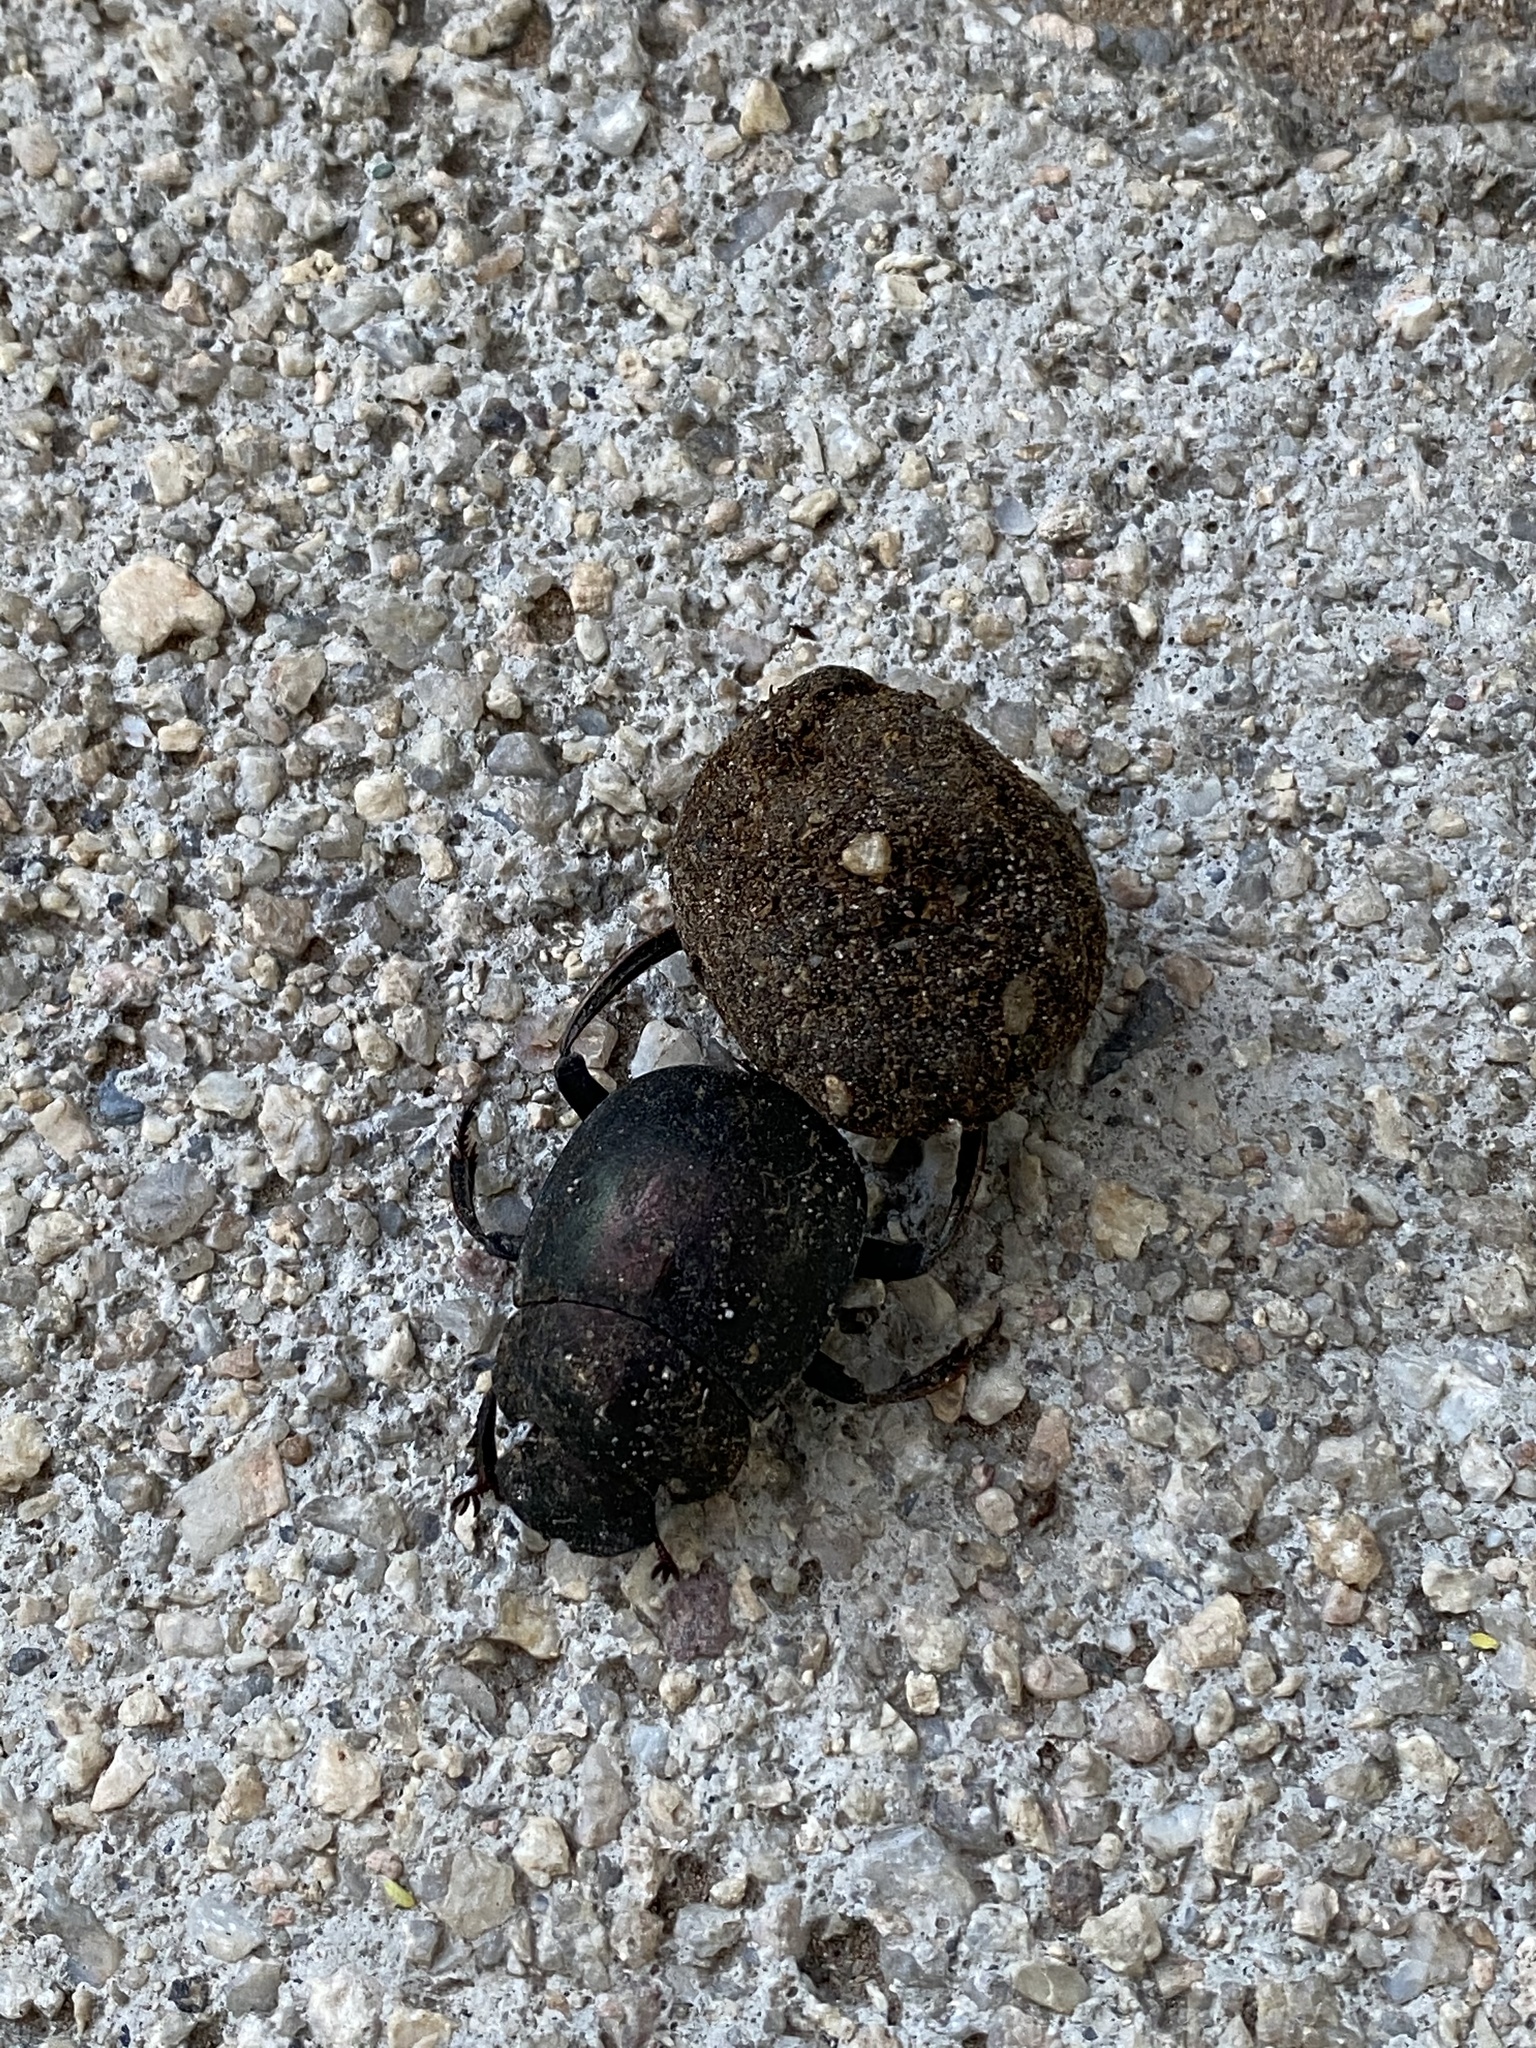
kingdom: Animalia
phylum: Arthropoda
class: Insecta
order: Coleoptera
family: Scarabaeidae
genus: Chalconotus
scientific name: Chalconotus convexus
